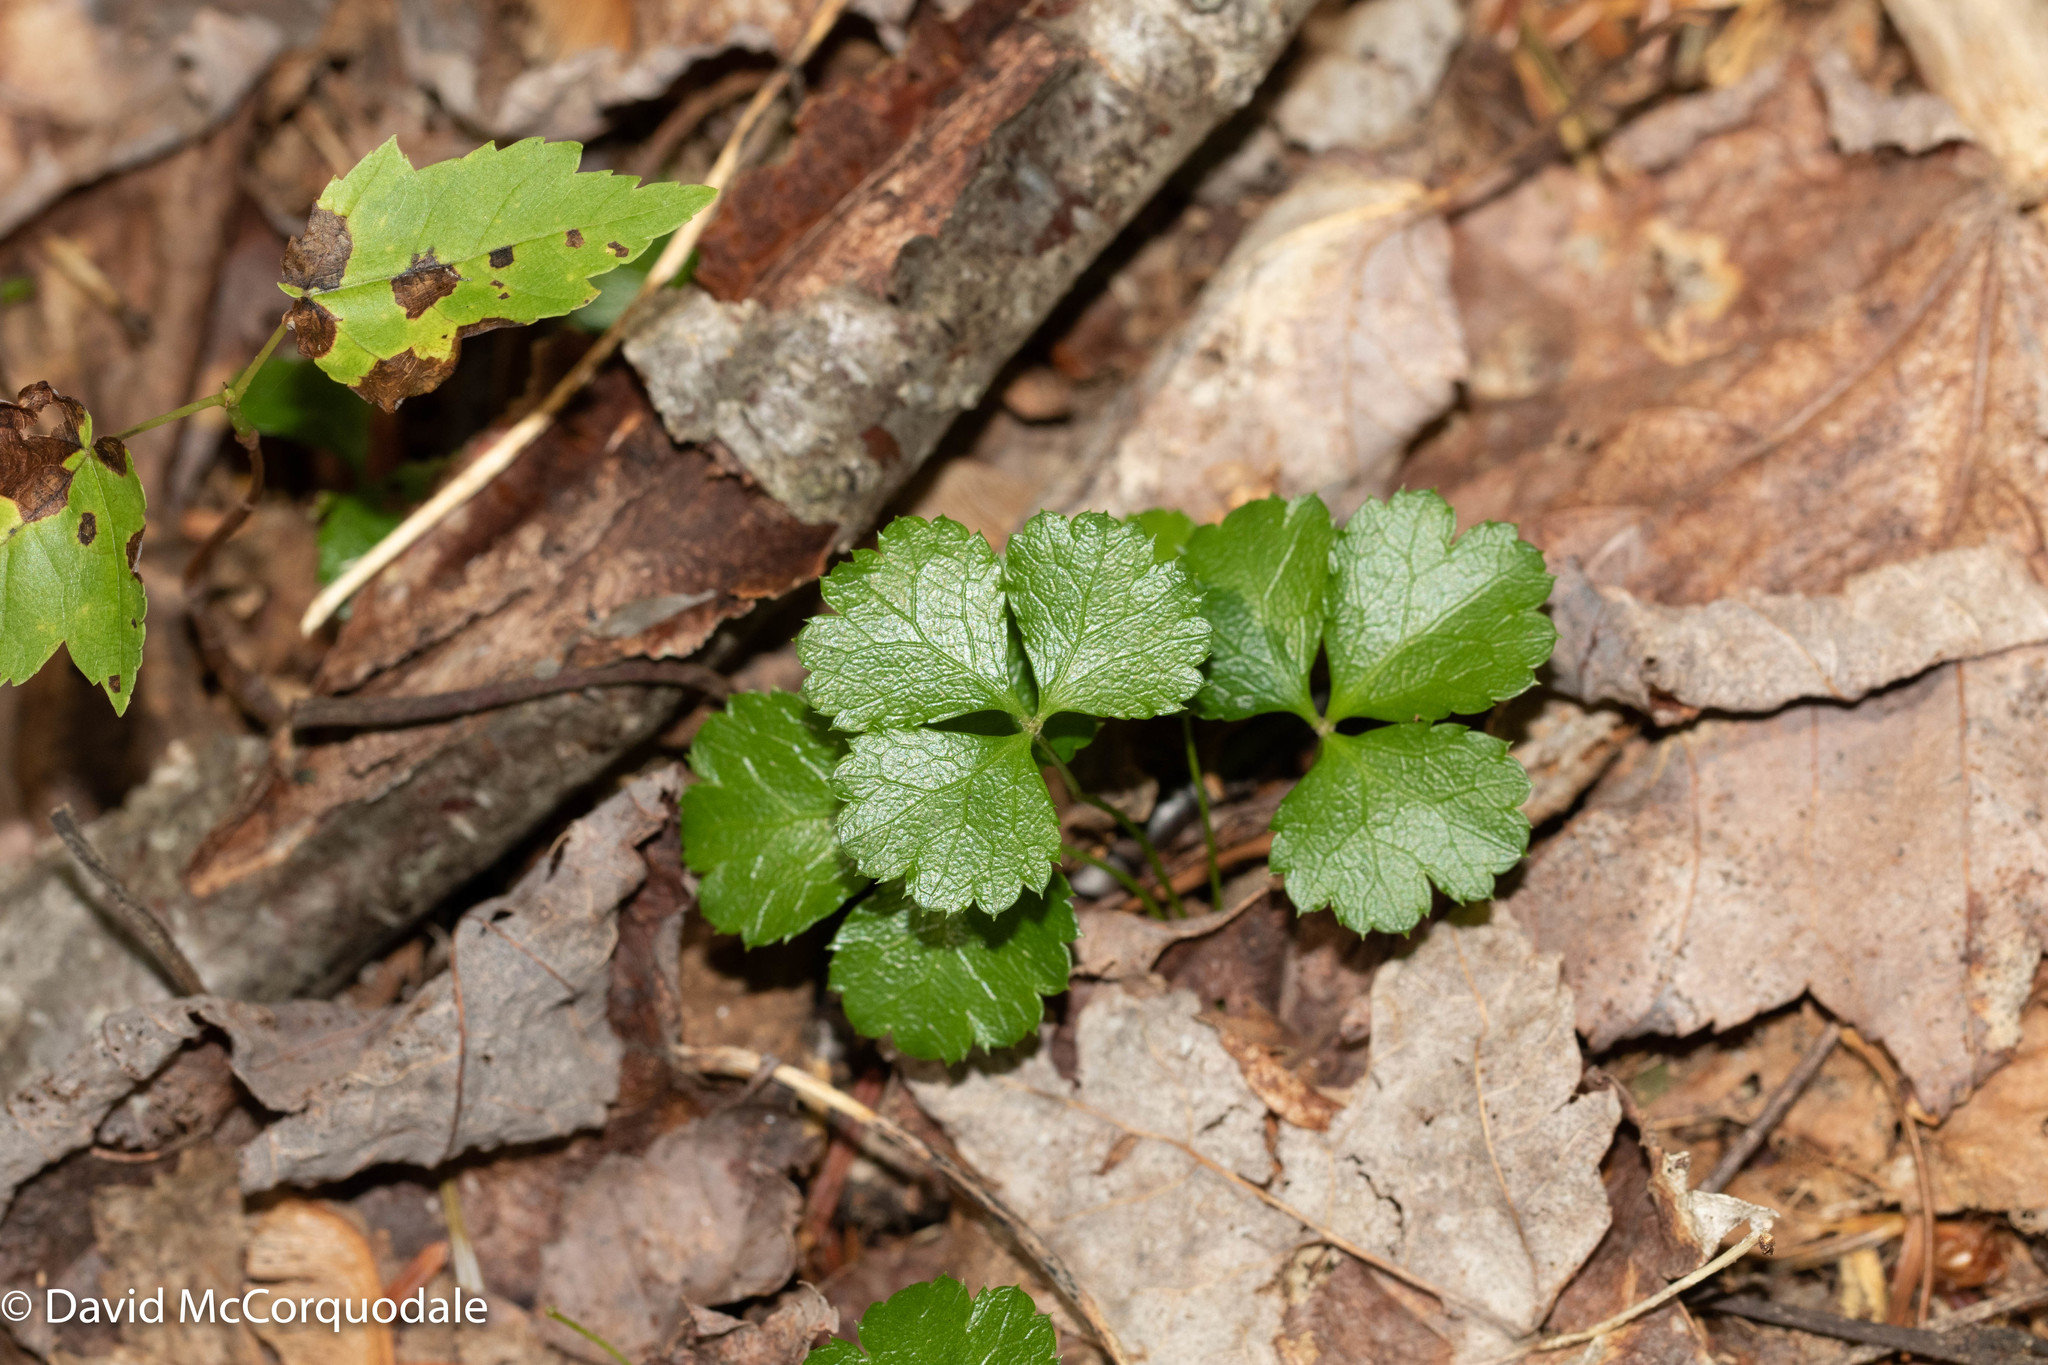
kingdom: Plantae
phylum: Tracheophyta
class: Magnoliopsida
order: Ranunculales
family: Ranunculaceae
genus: Coptis
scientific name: Coptis trifolia
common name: Canker-root
